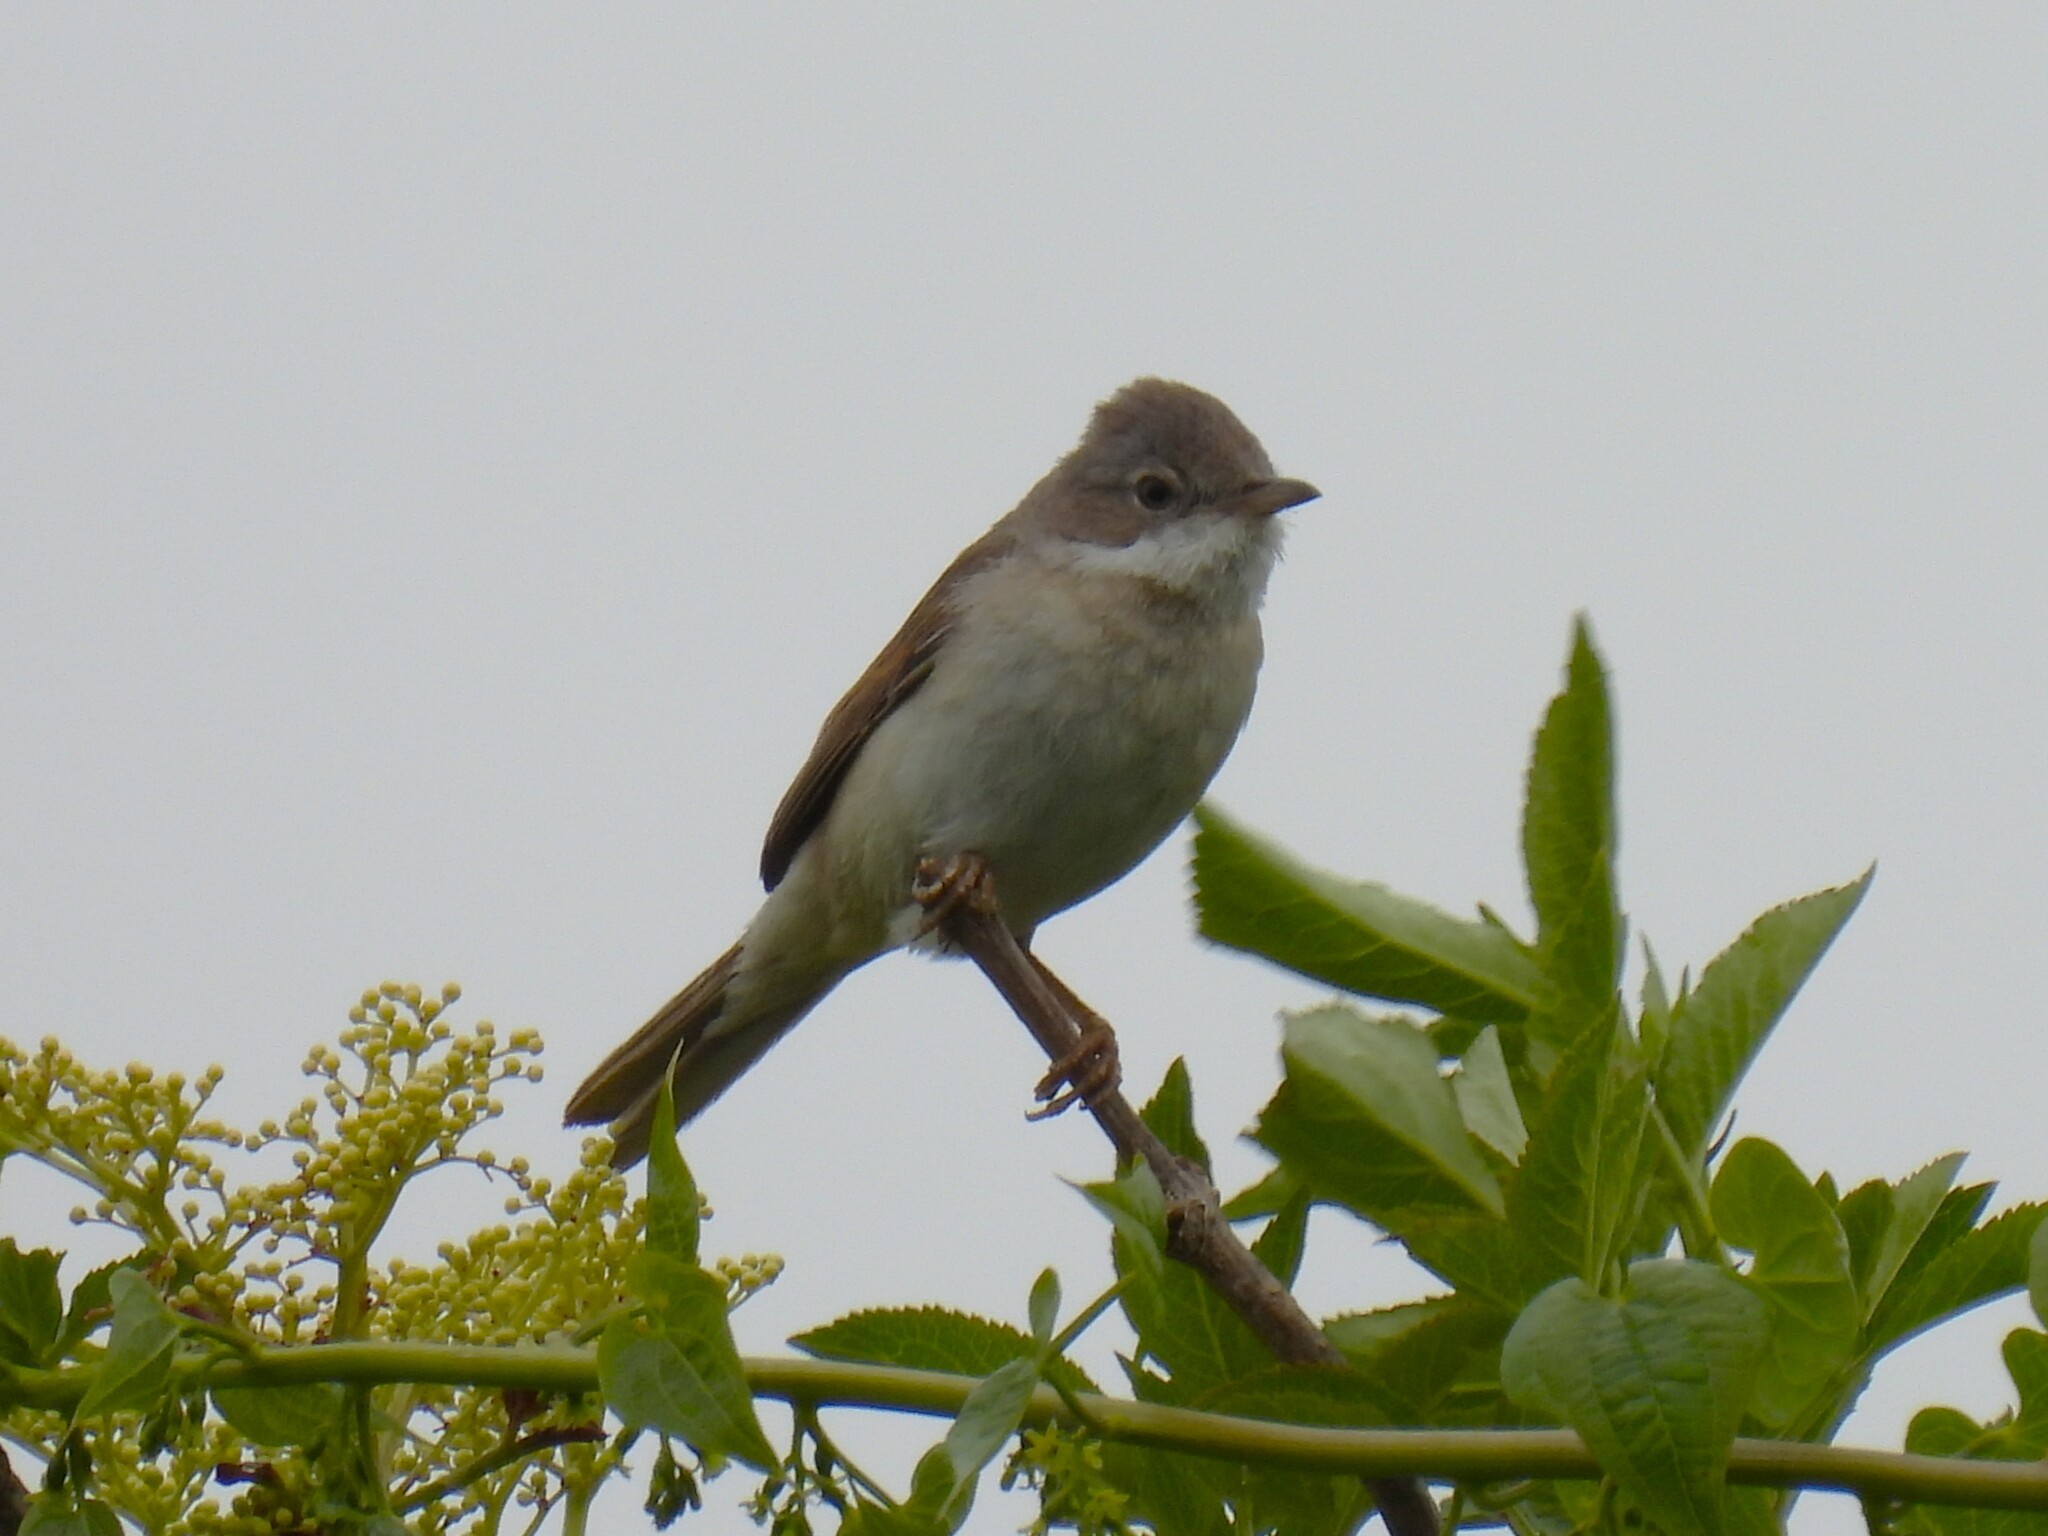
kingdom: Animalia
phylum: Chordata
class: Aves
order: Passeriformes
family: Sylviidae
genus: Sylvia
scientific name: Sylvia communis
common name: Common whitethroat
